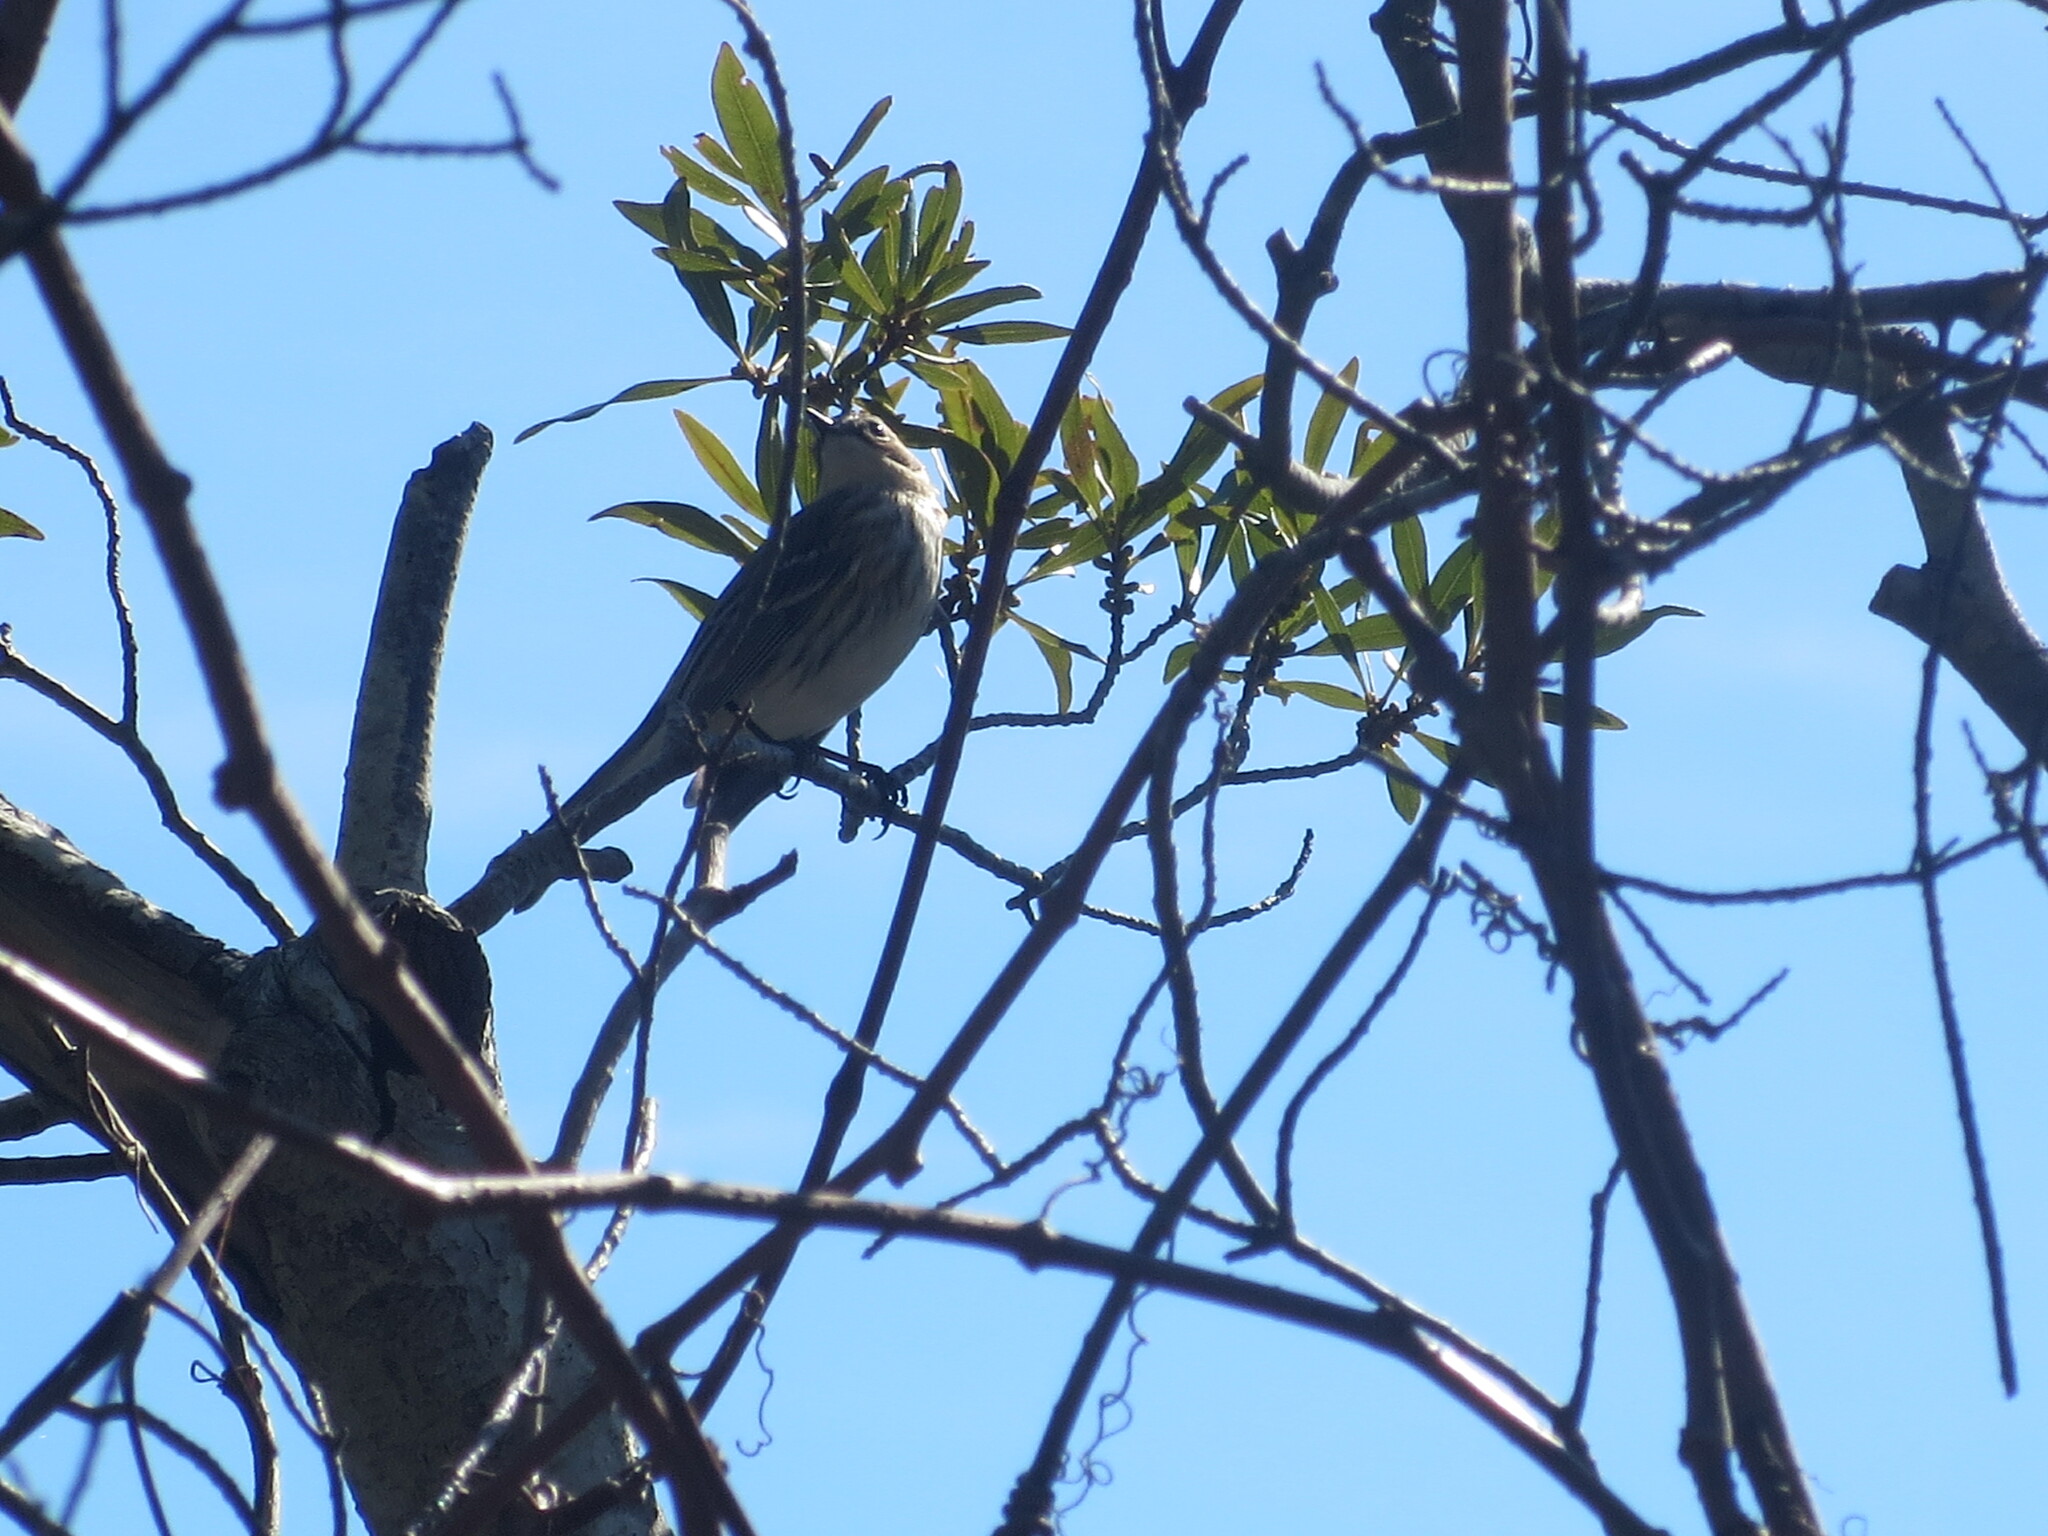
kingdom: Animalia
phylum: Chordata
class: Aves
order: Passeriformes
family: Parulidae
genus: Setophaga
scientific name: Setophaga coronata
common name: Myrtle warbler
